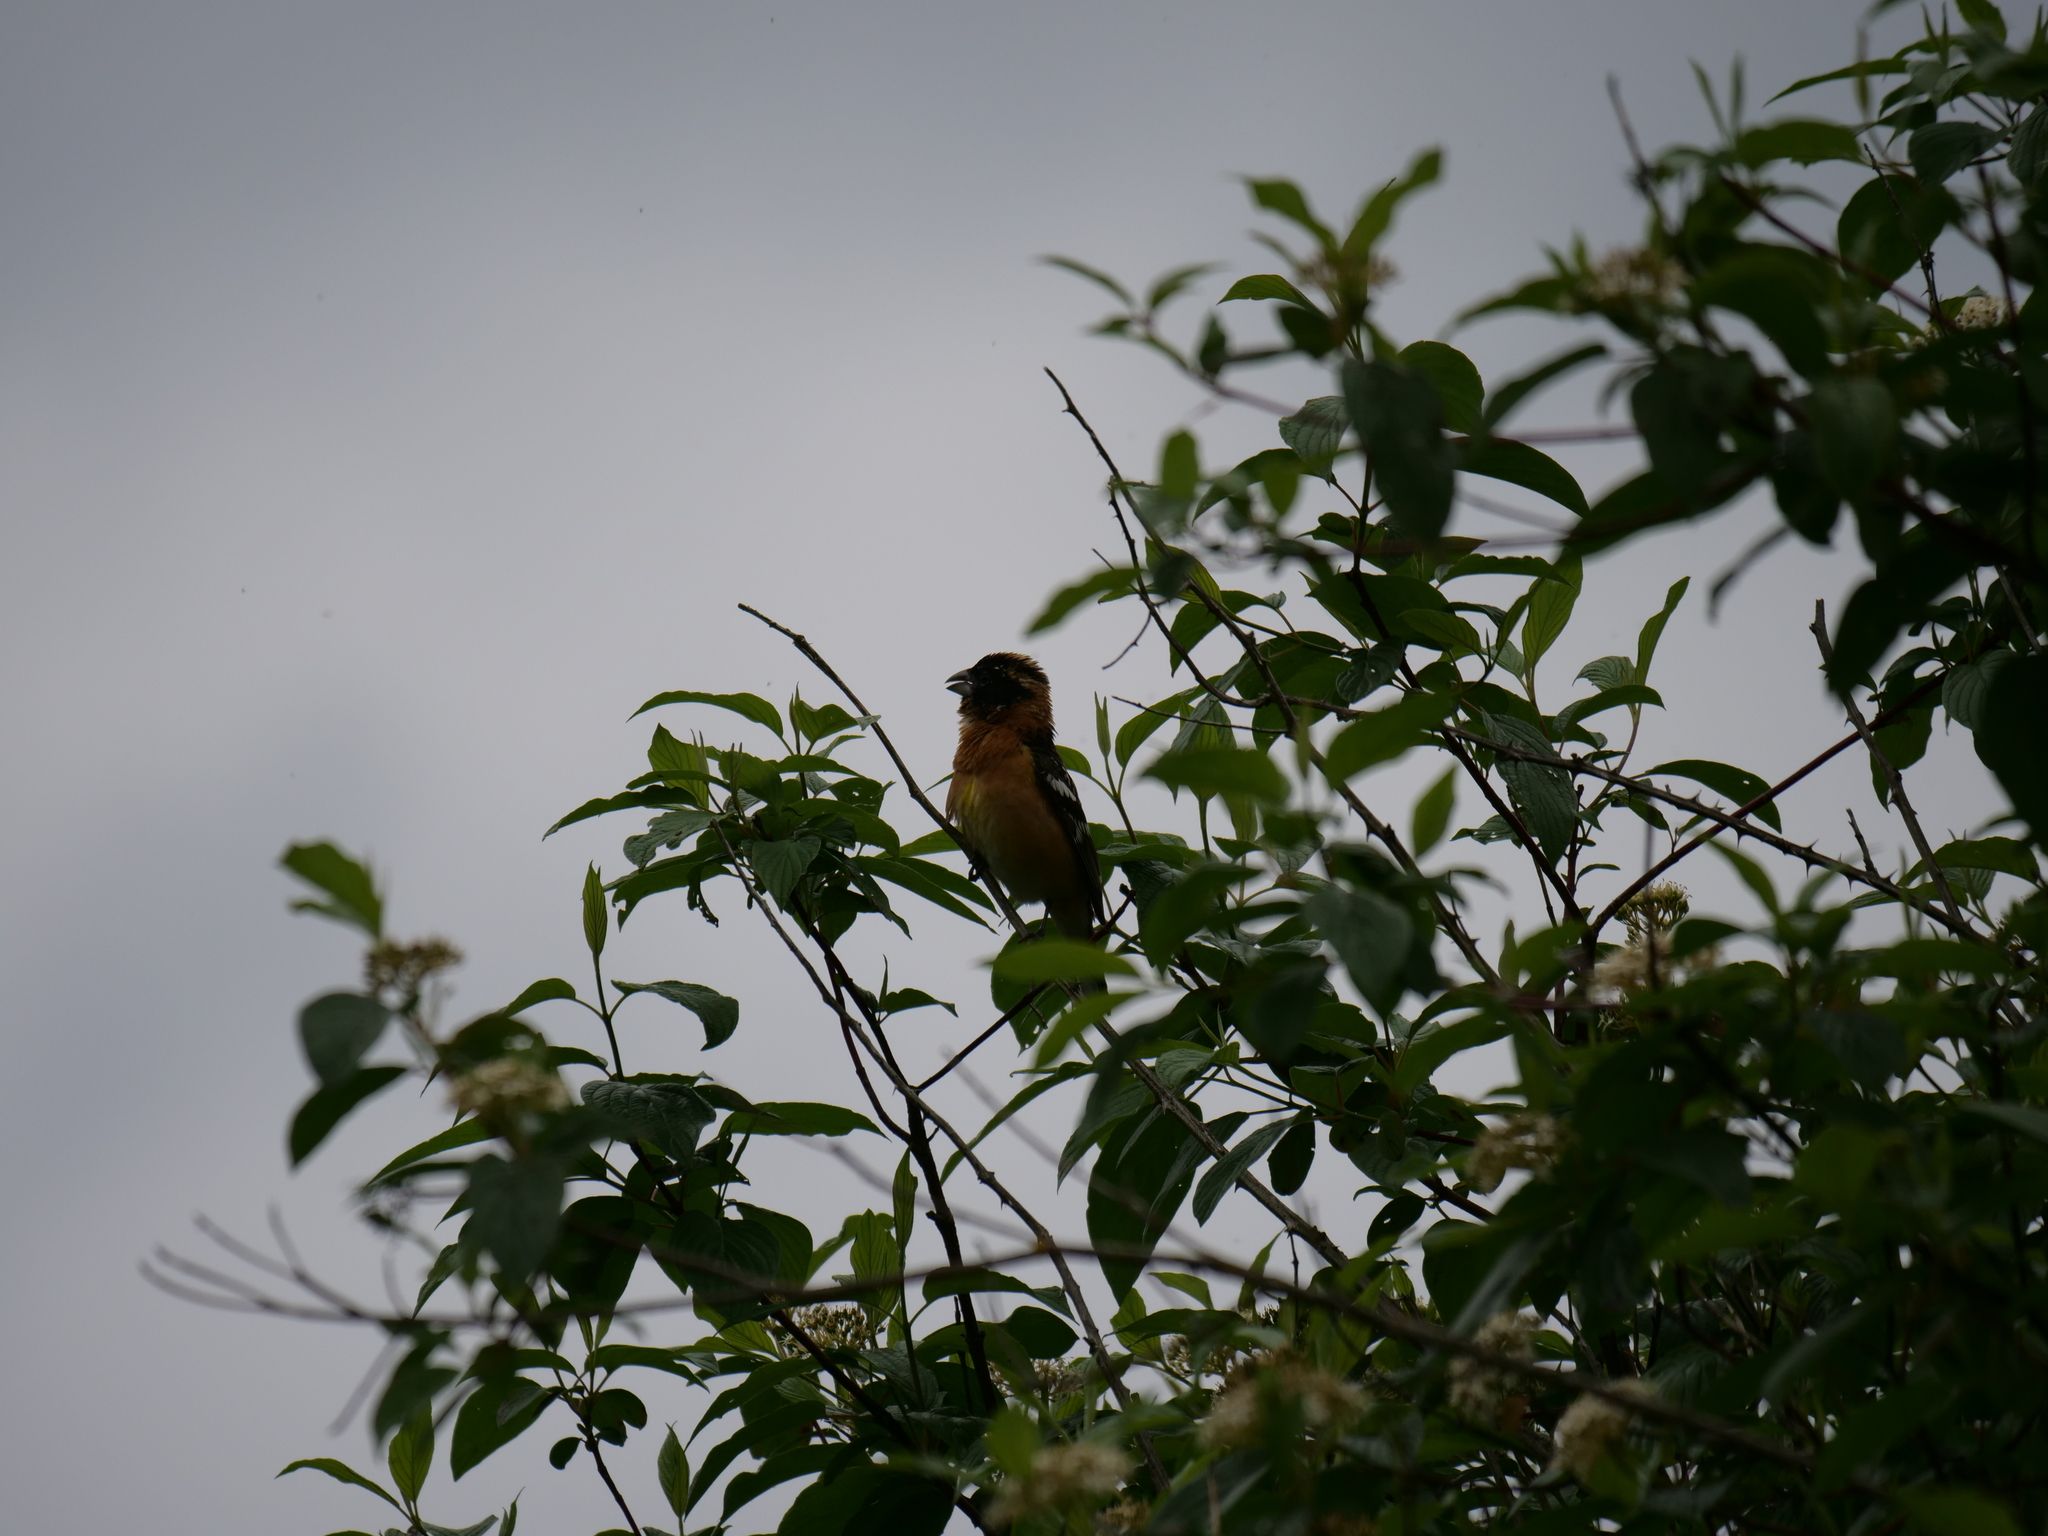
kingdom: Animalia
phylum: Chordata
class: Aves
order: Passeriformes
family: Cardinalidae
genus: Pheucticus
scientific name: Pheucticus melanocephalus
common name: Black-headed grosbeak
